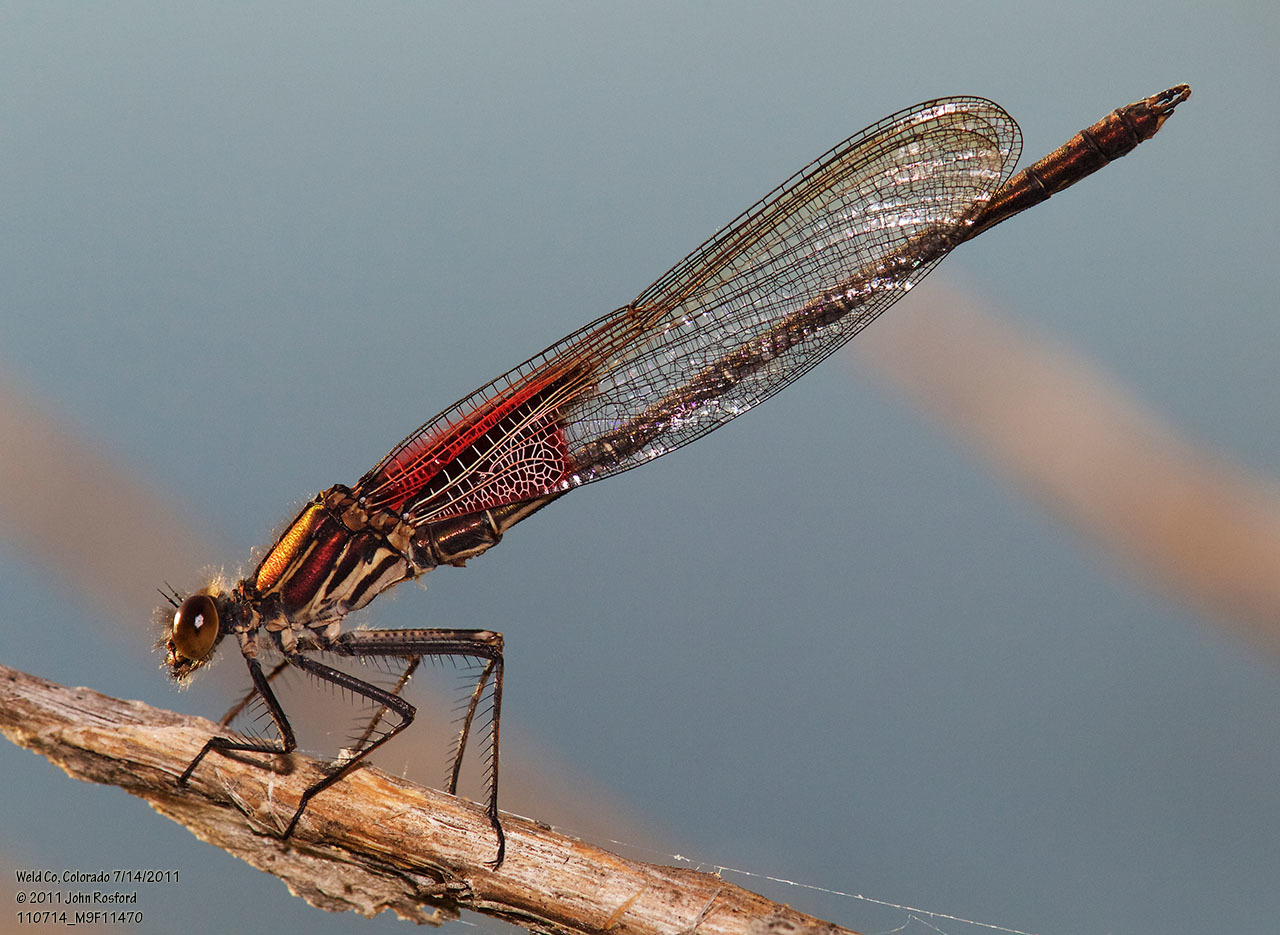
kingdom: Animalia
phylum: Arthropoda
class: Insecta
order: Odonata
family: Calopterygidae
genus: Hetaerina
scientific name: Hetaerina americana
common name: American rubyspot
